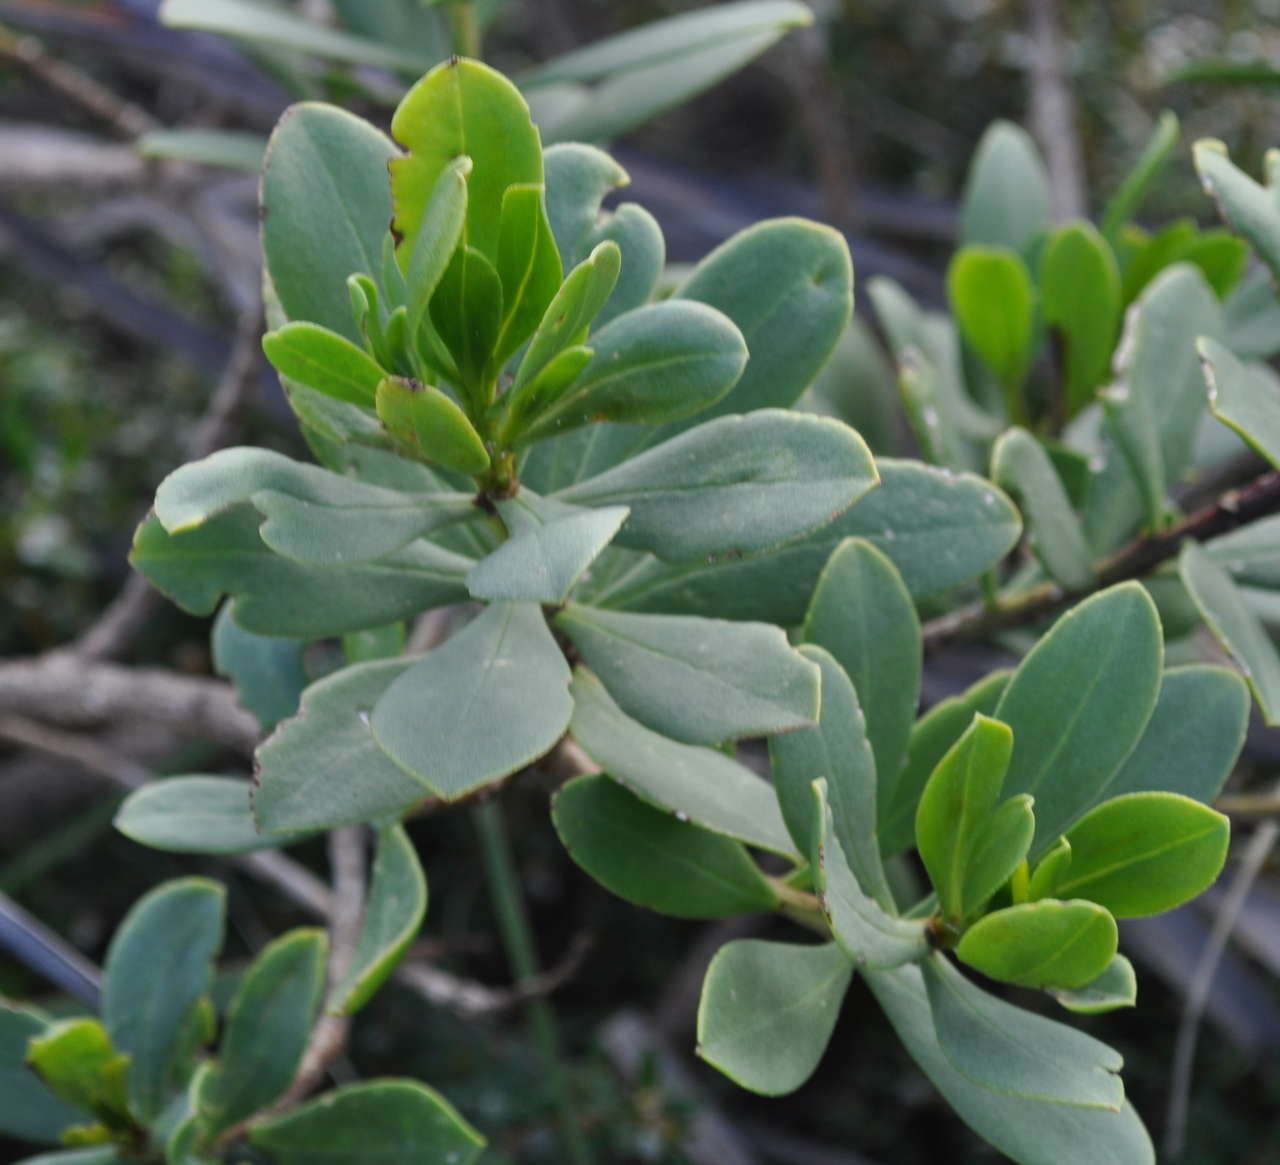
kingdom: Plantae
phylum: Tracheophyta
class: Magnoliopsida
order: Lamiales
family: Scrophulariaceae
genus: Myoporum
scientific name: Myoporum insulare
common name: Common boobialla
